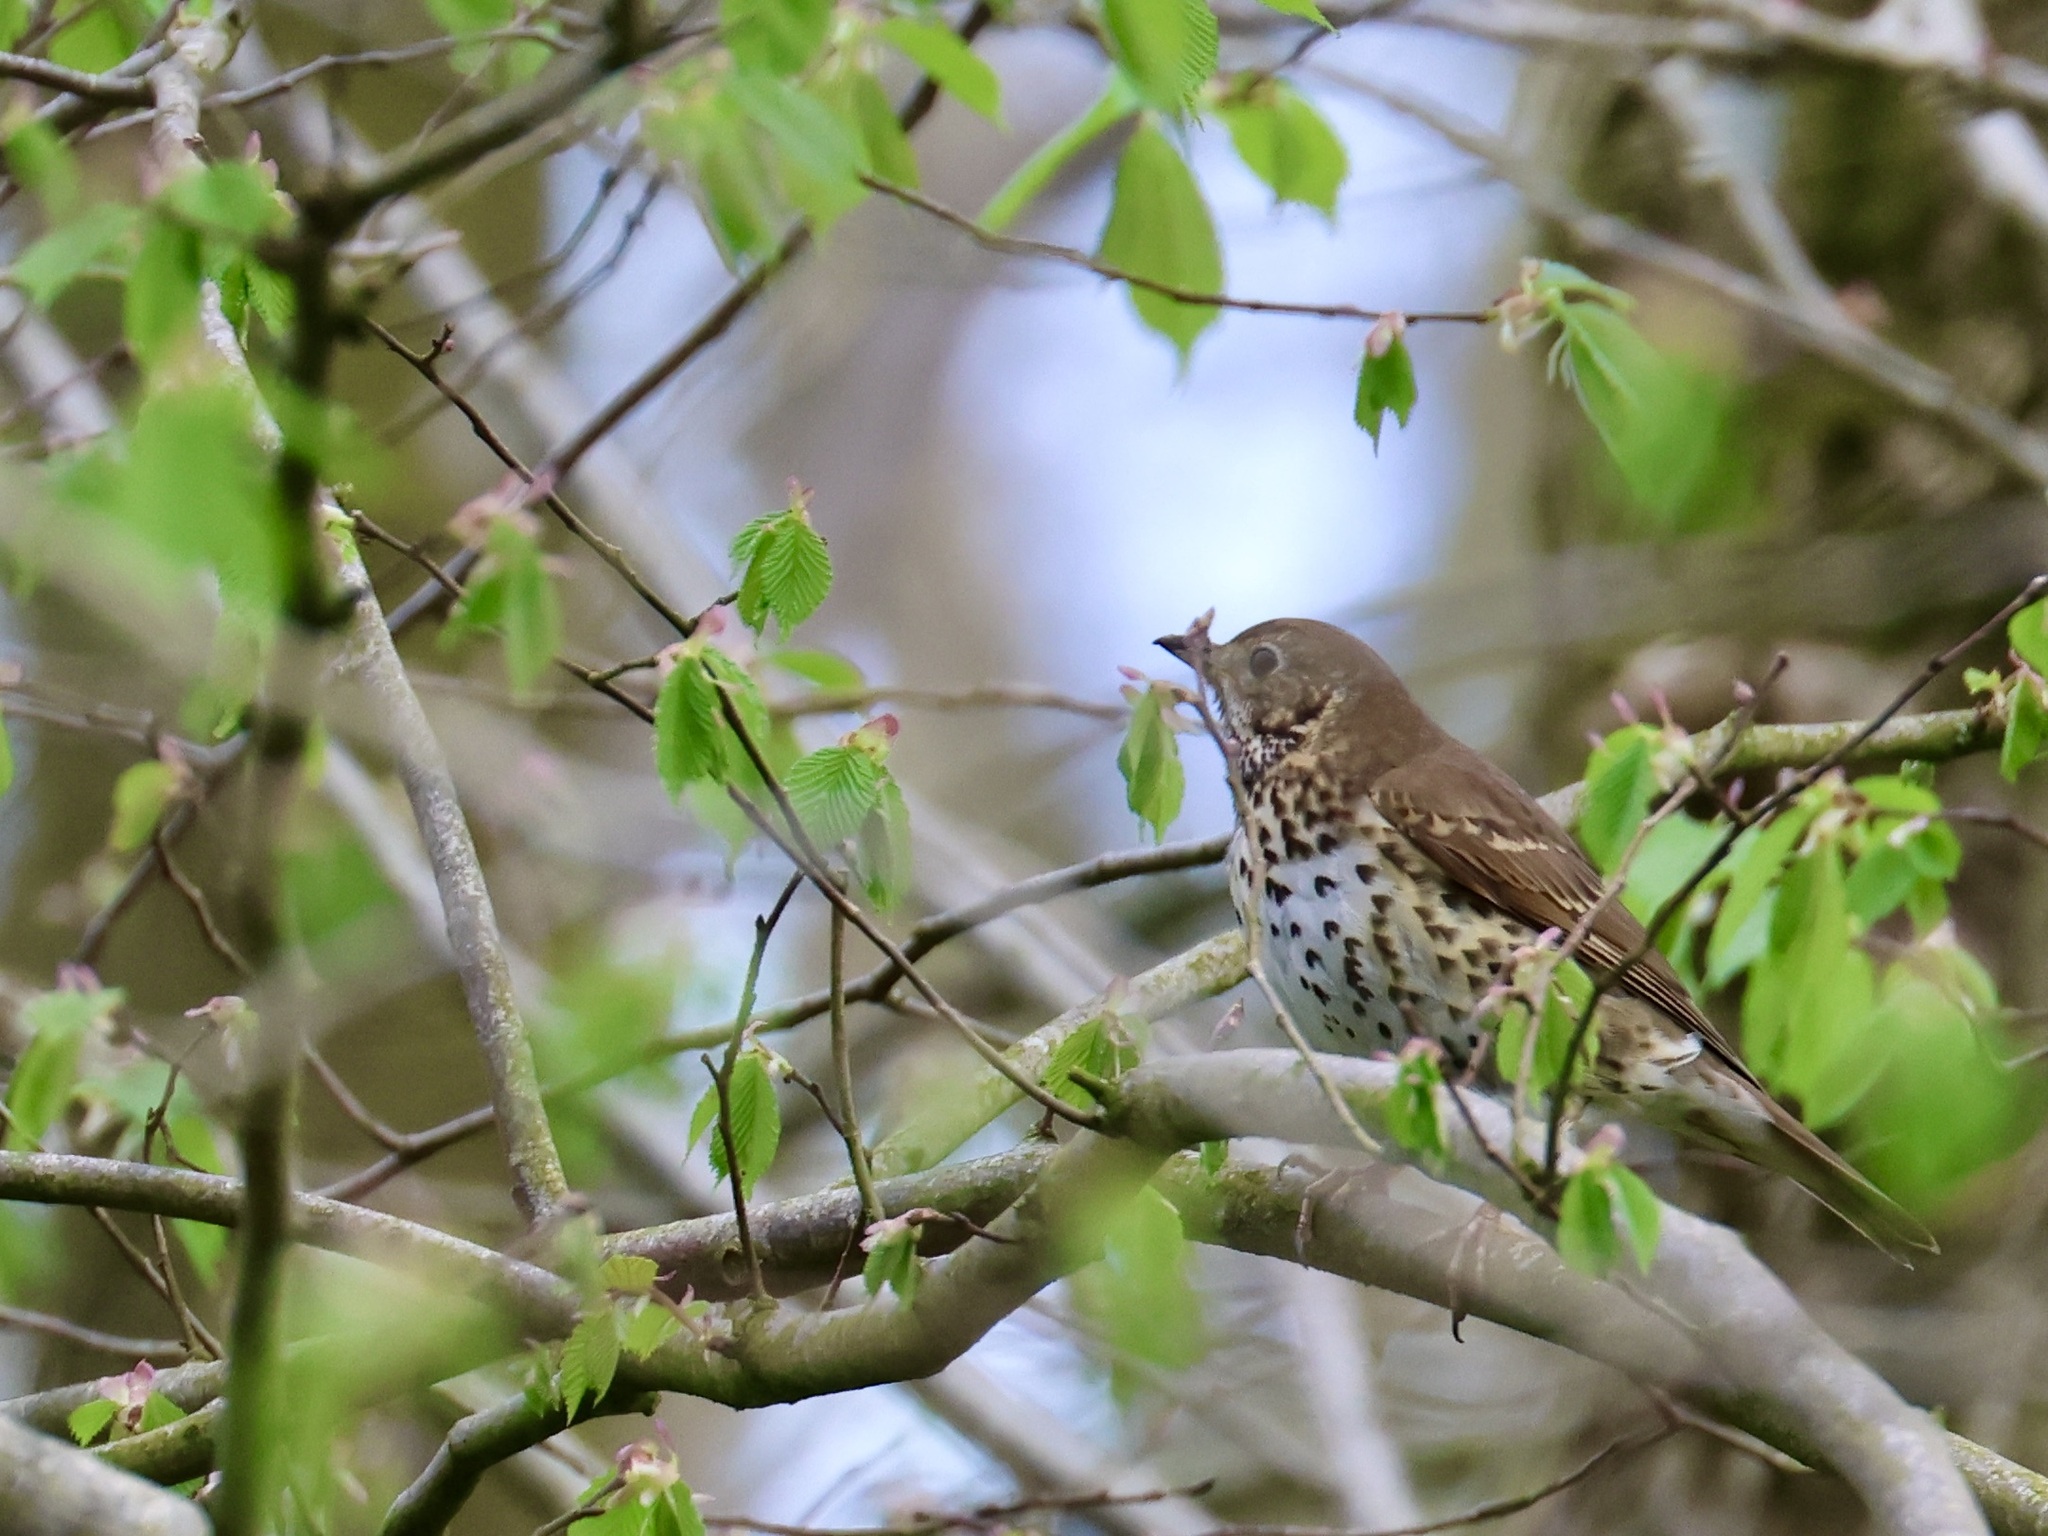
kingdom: Animalia
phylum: Chordata
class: Aves
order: Passeriformes
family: Turdidae
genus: Turdus
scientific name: Turdus philomelos
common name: Song thrush
